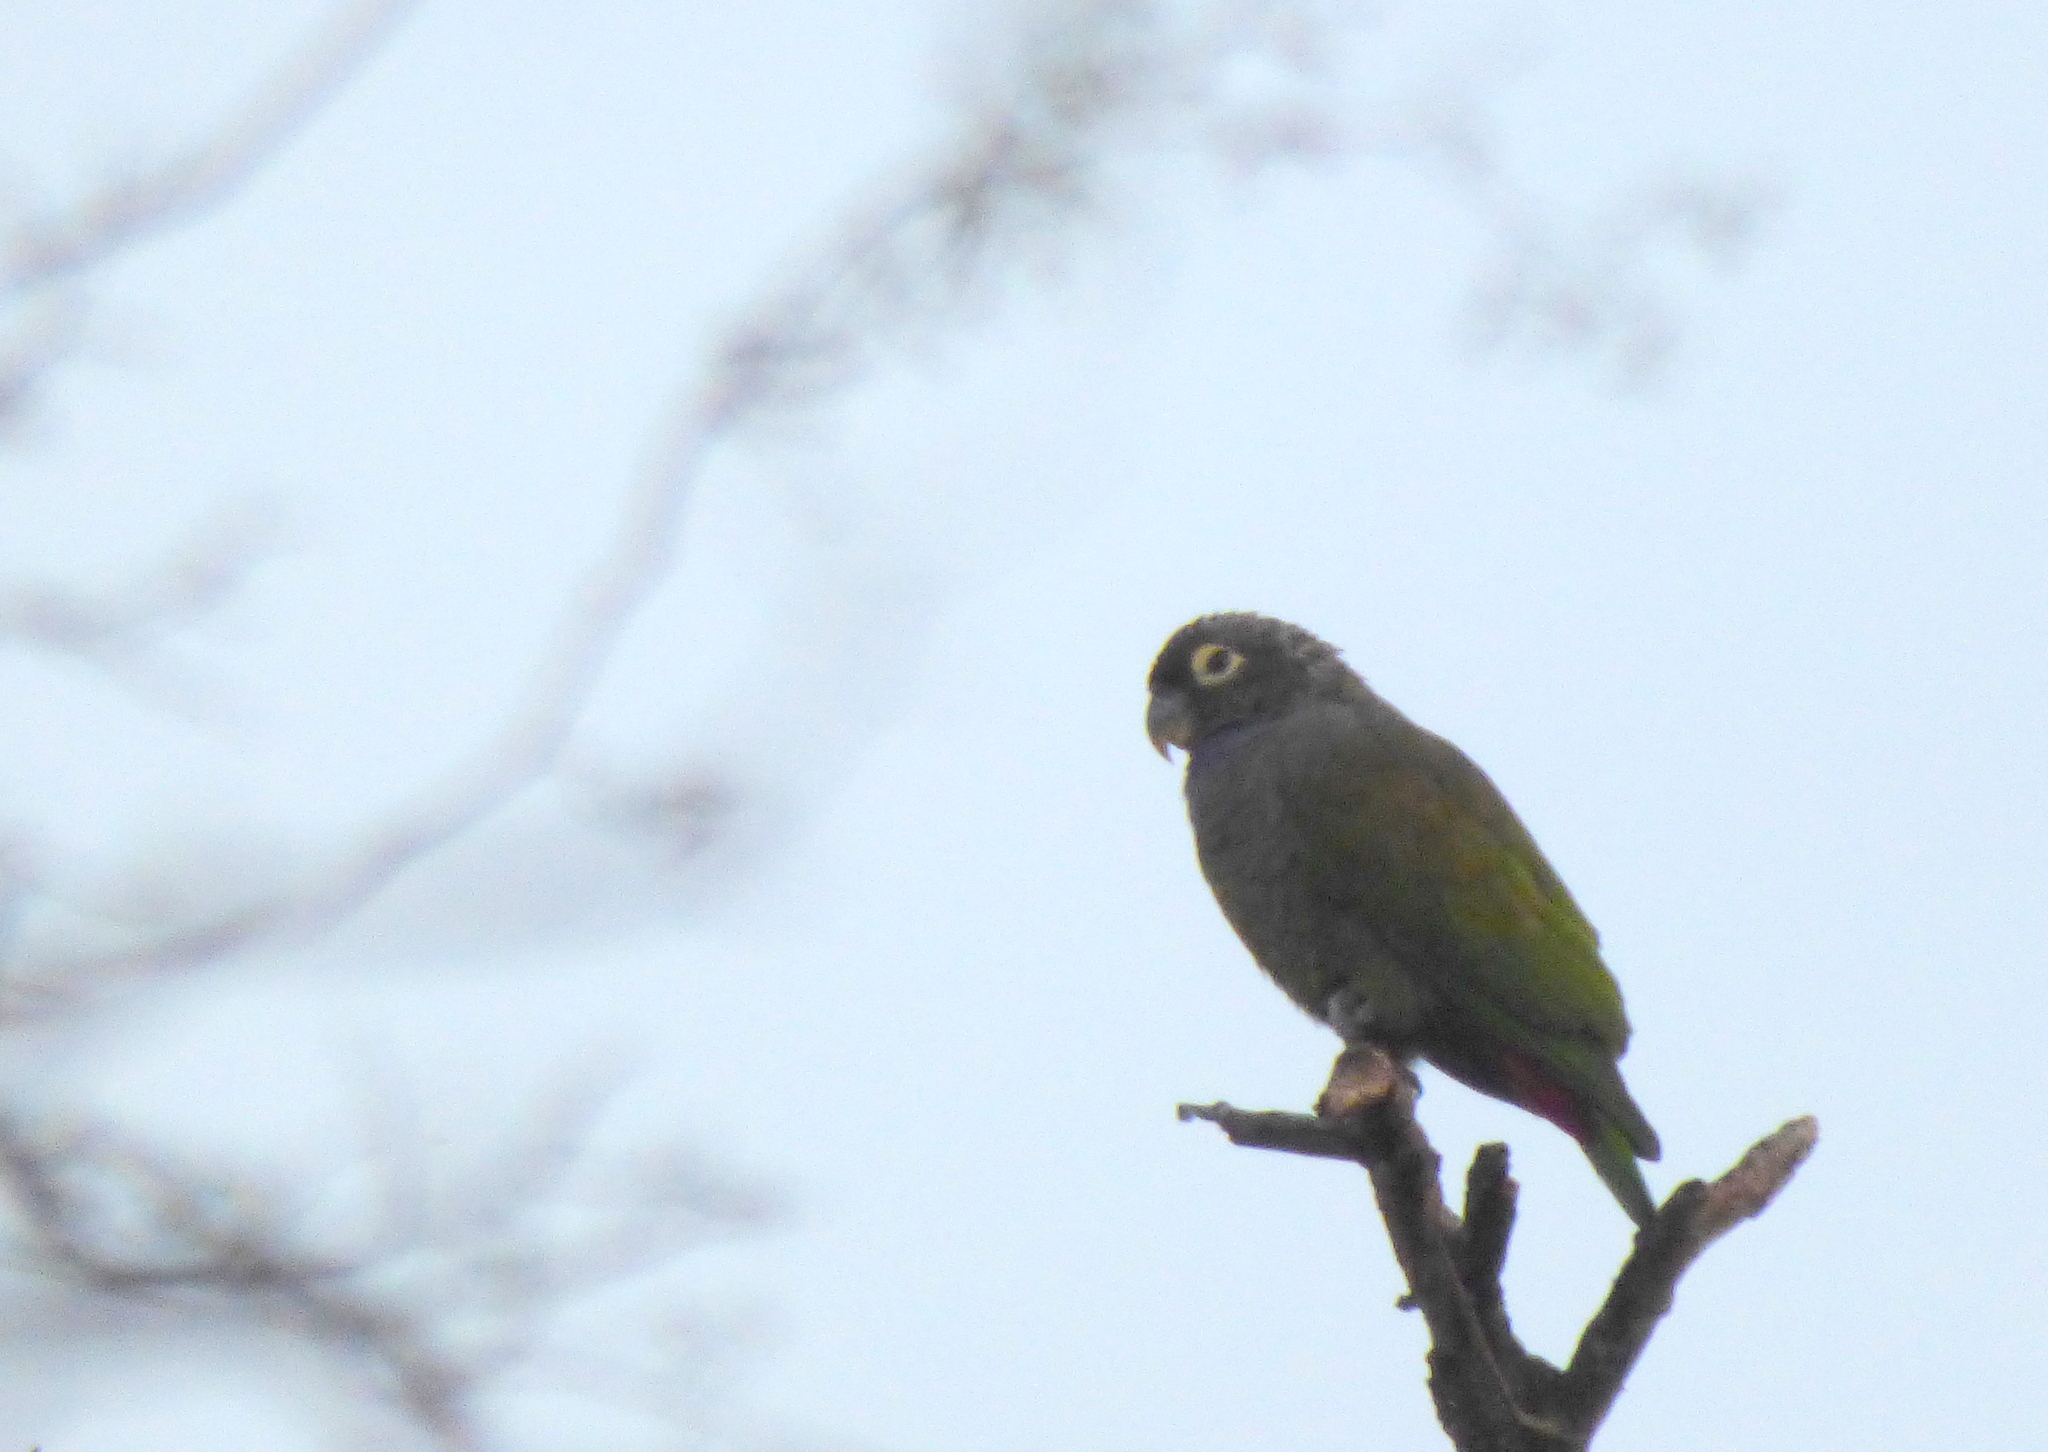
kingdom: Animalia
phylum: Chordata
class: Aves
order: Psittaciformes
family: Psittacidae
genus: Pionus
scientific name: Pionus maximiliani
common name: Scaly-headed parrot
